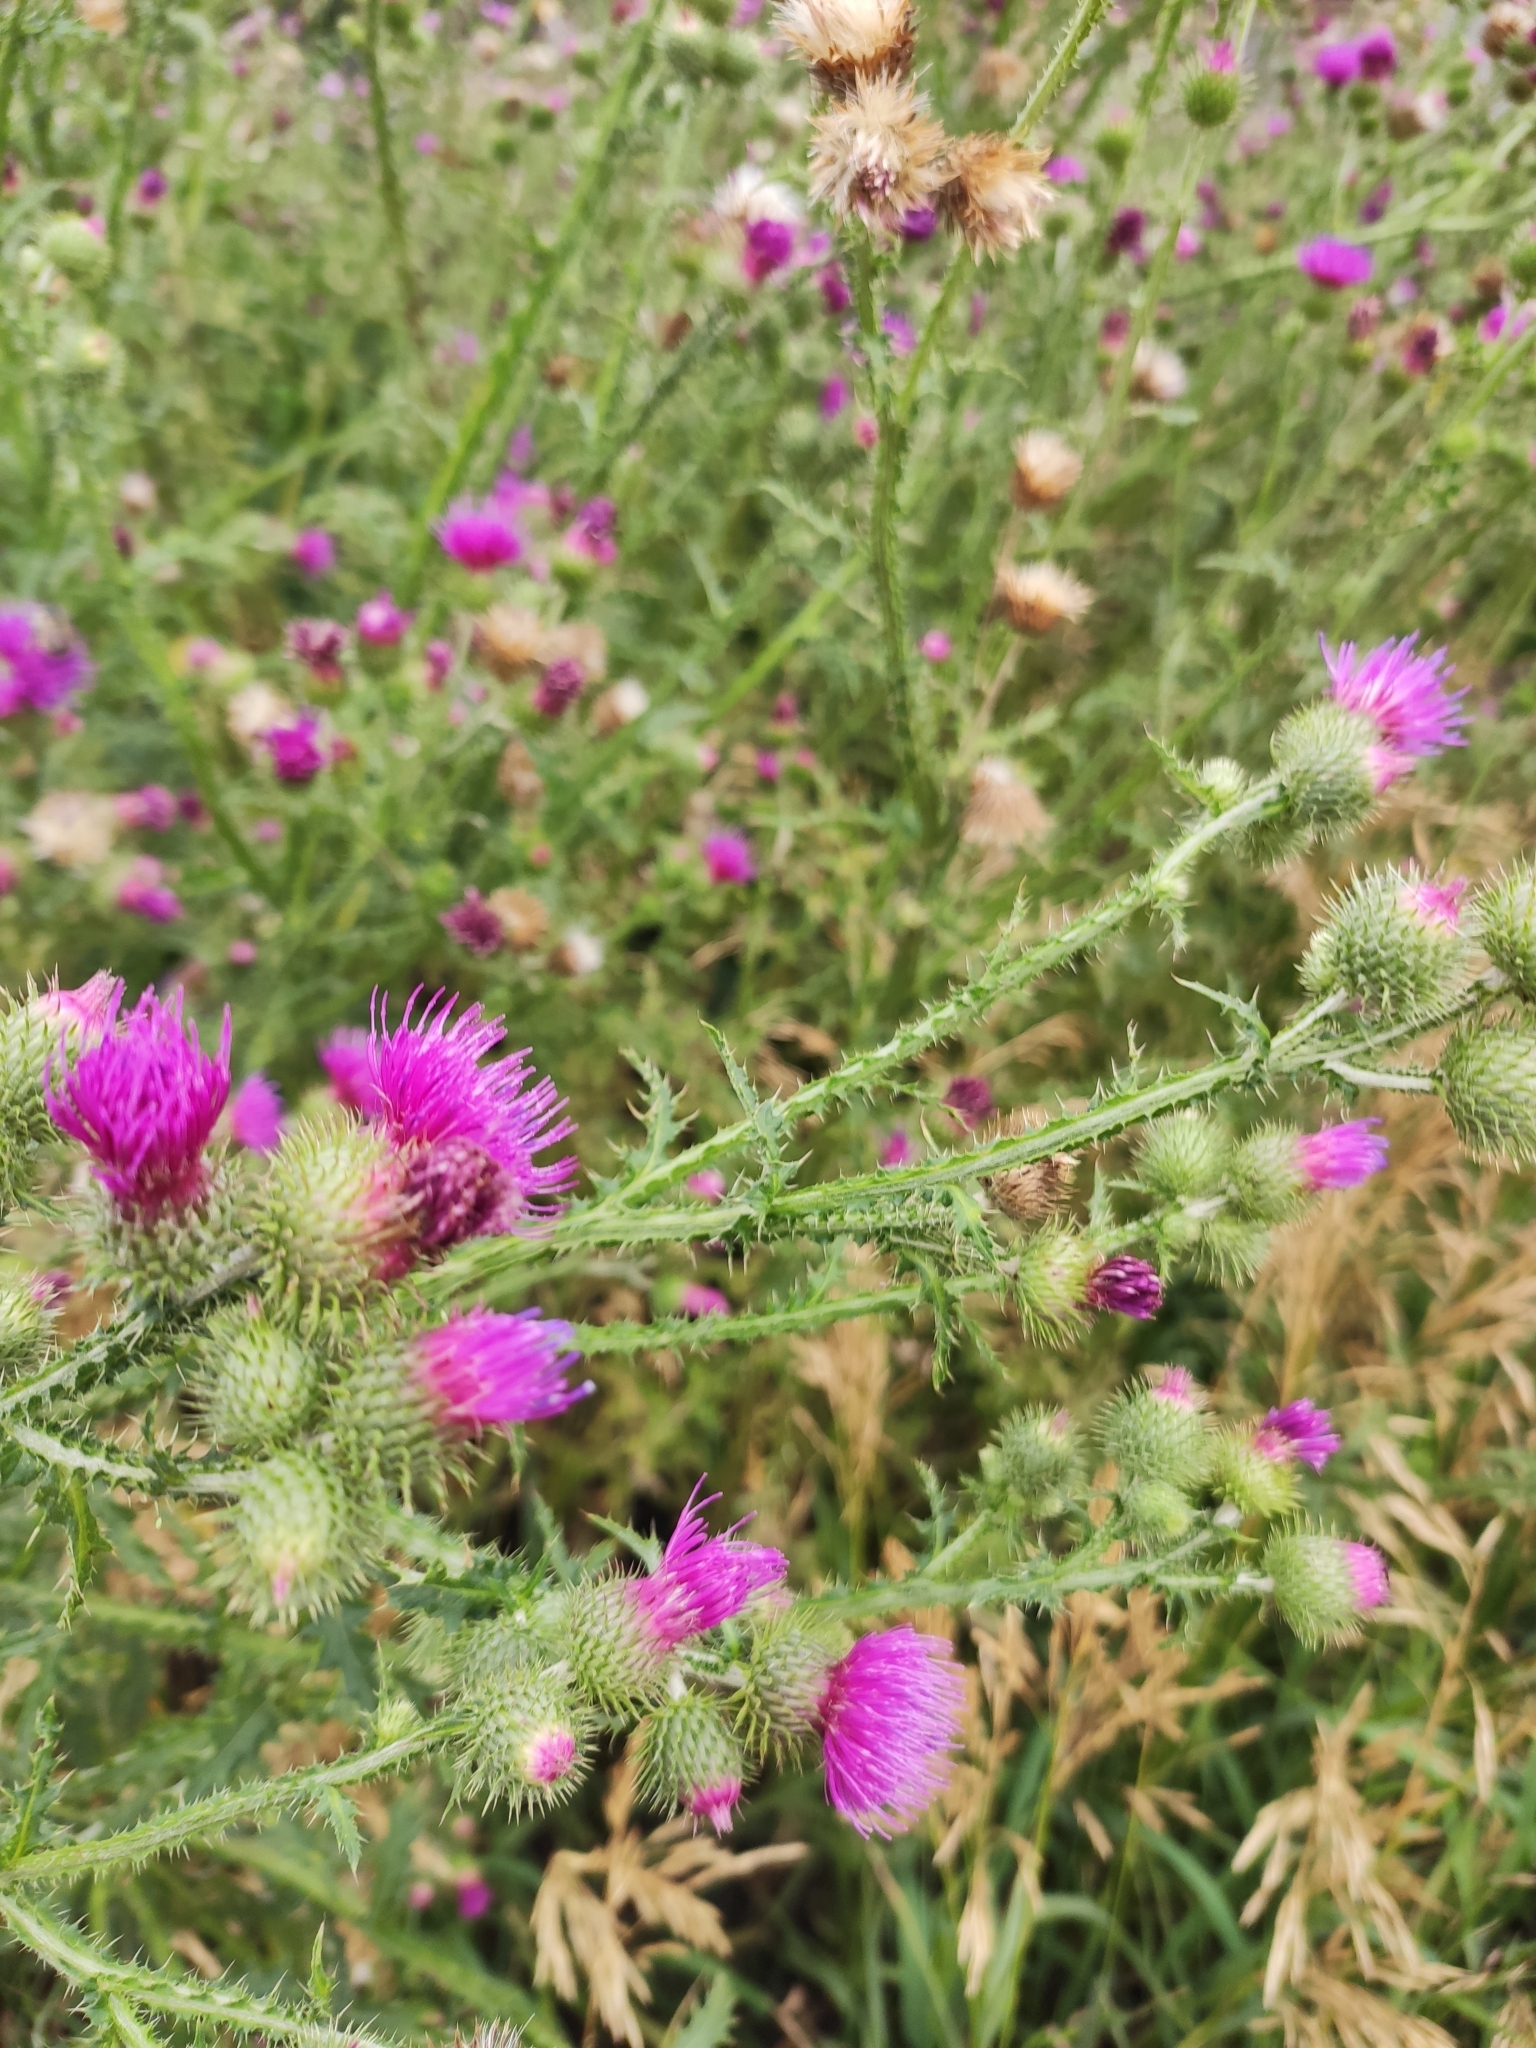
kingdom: Plantae
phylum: Tracheophyta
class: Magnoliopsida
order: Asterales
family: Asteraceae
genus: Carduus
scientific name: Carduus acanthoides
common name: Plumeless thistle
